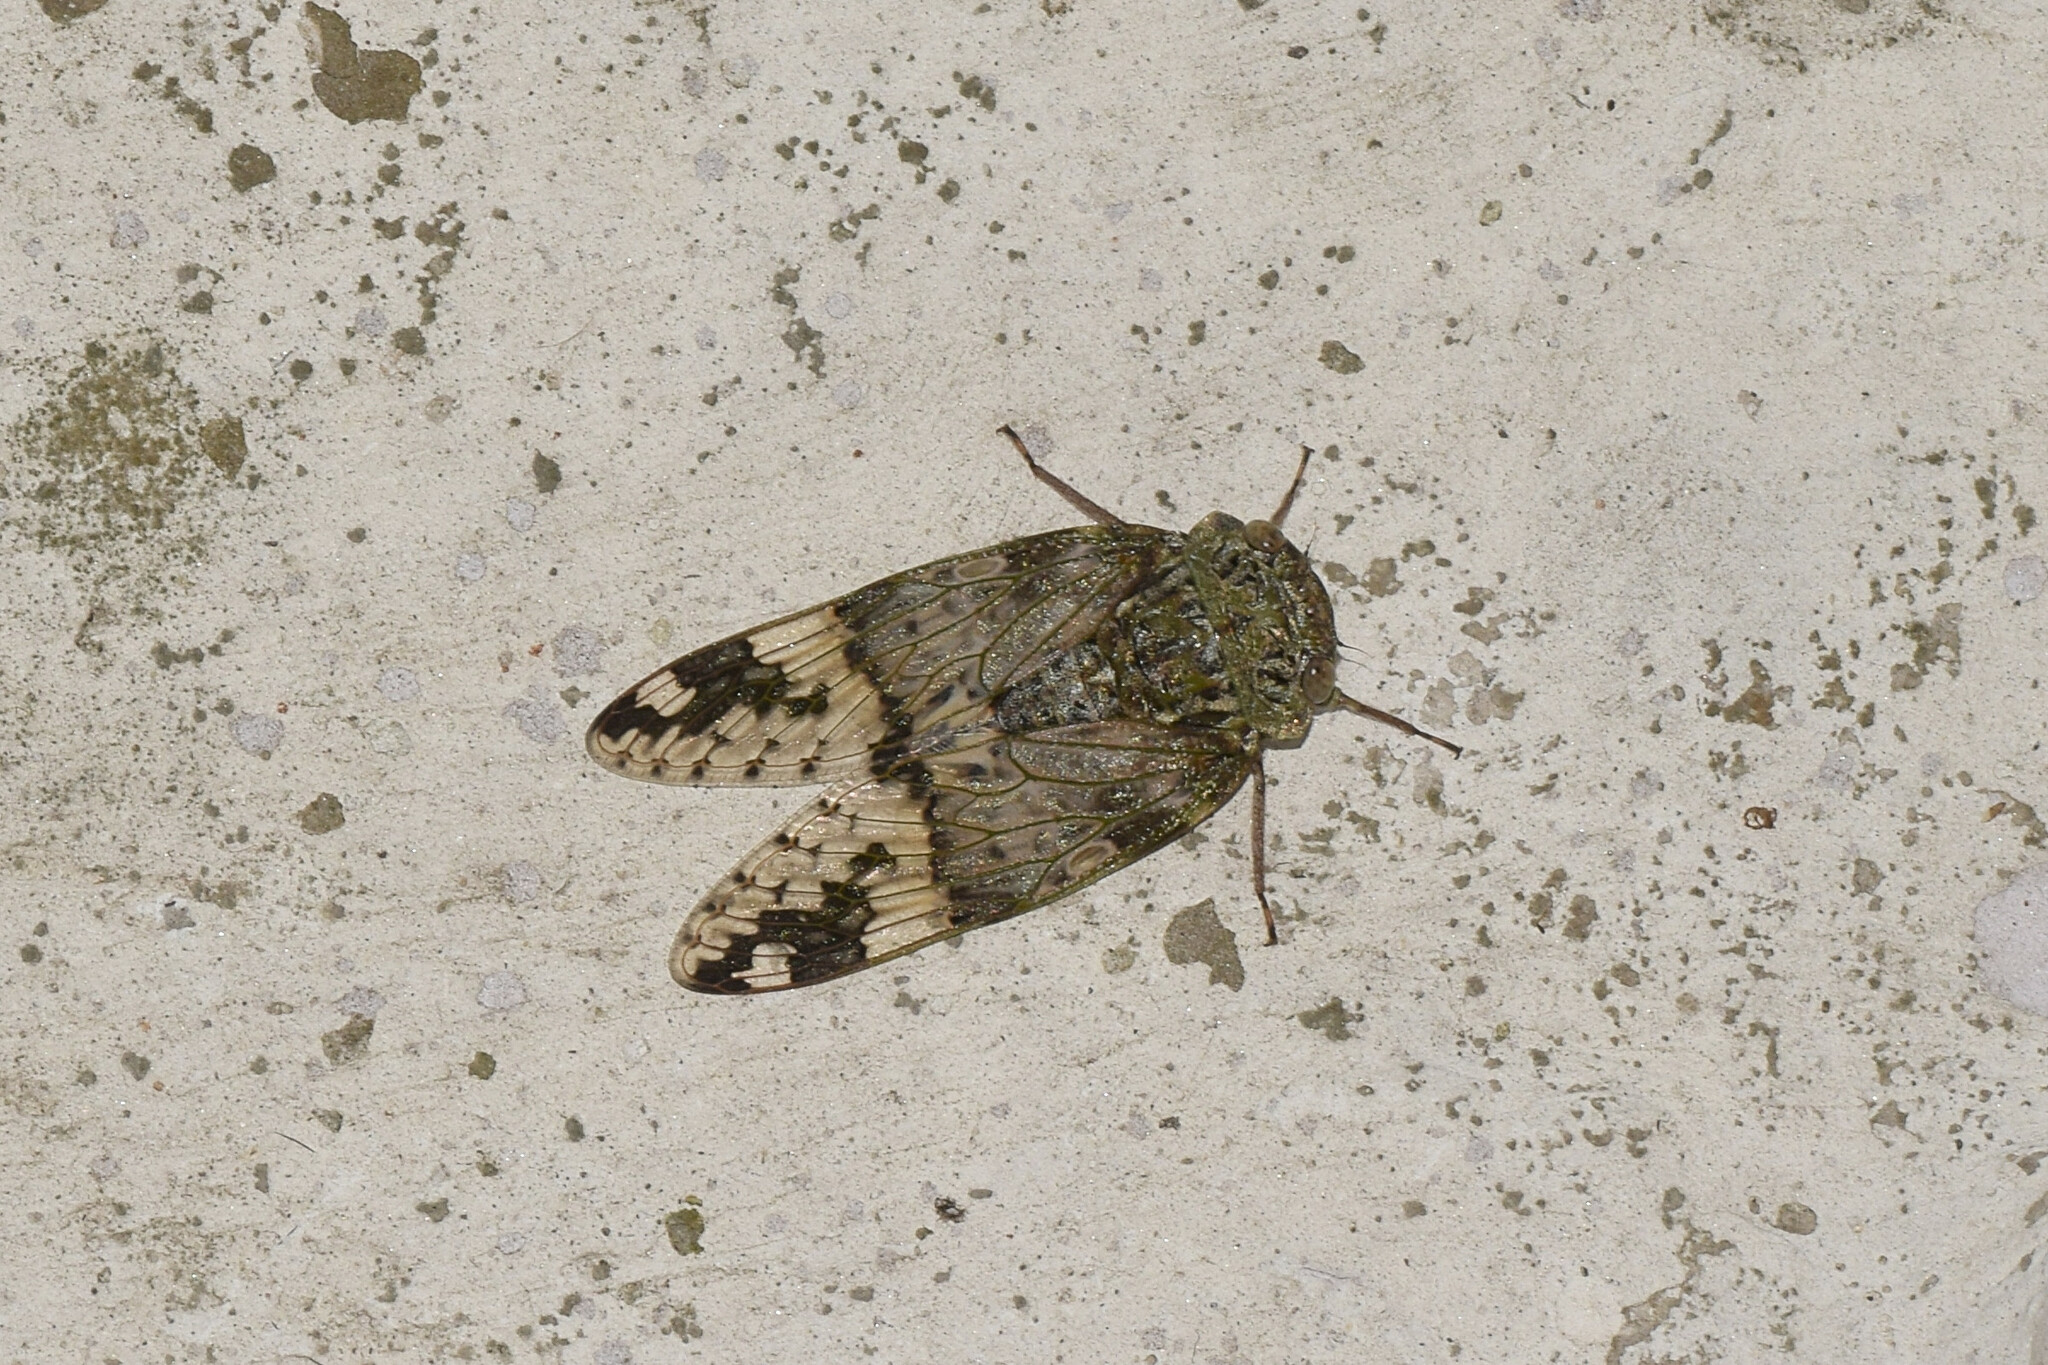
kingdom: Animalia
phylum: Arthropoda
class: Insecta
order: Hemiptera
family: Cicadidae
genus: Platypleura
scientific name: Platypleura assamensis
